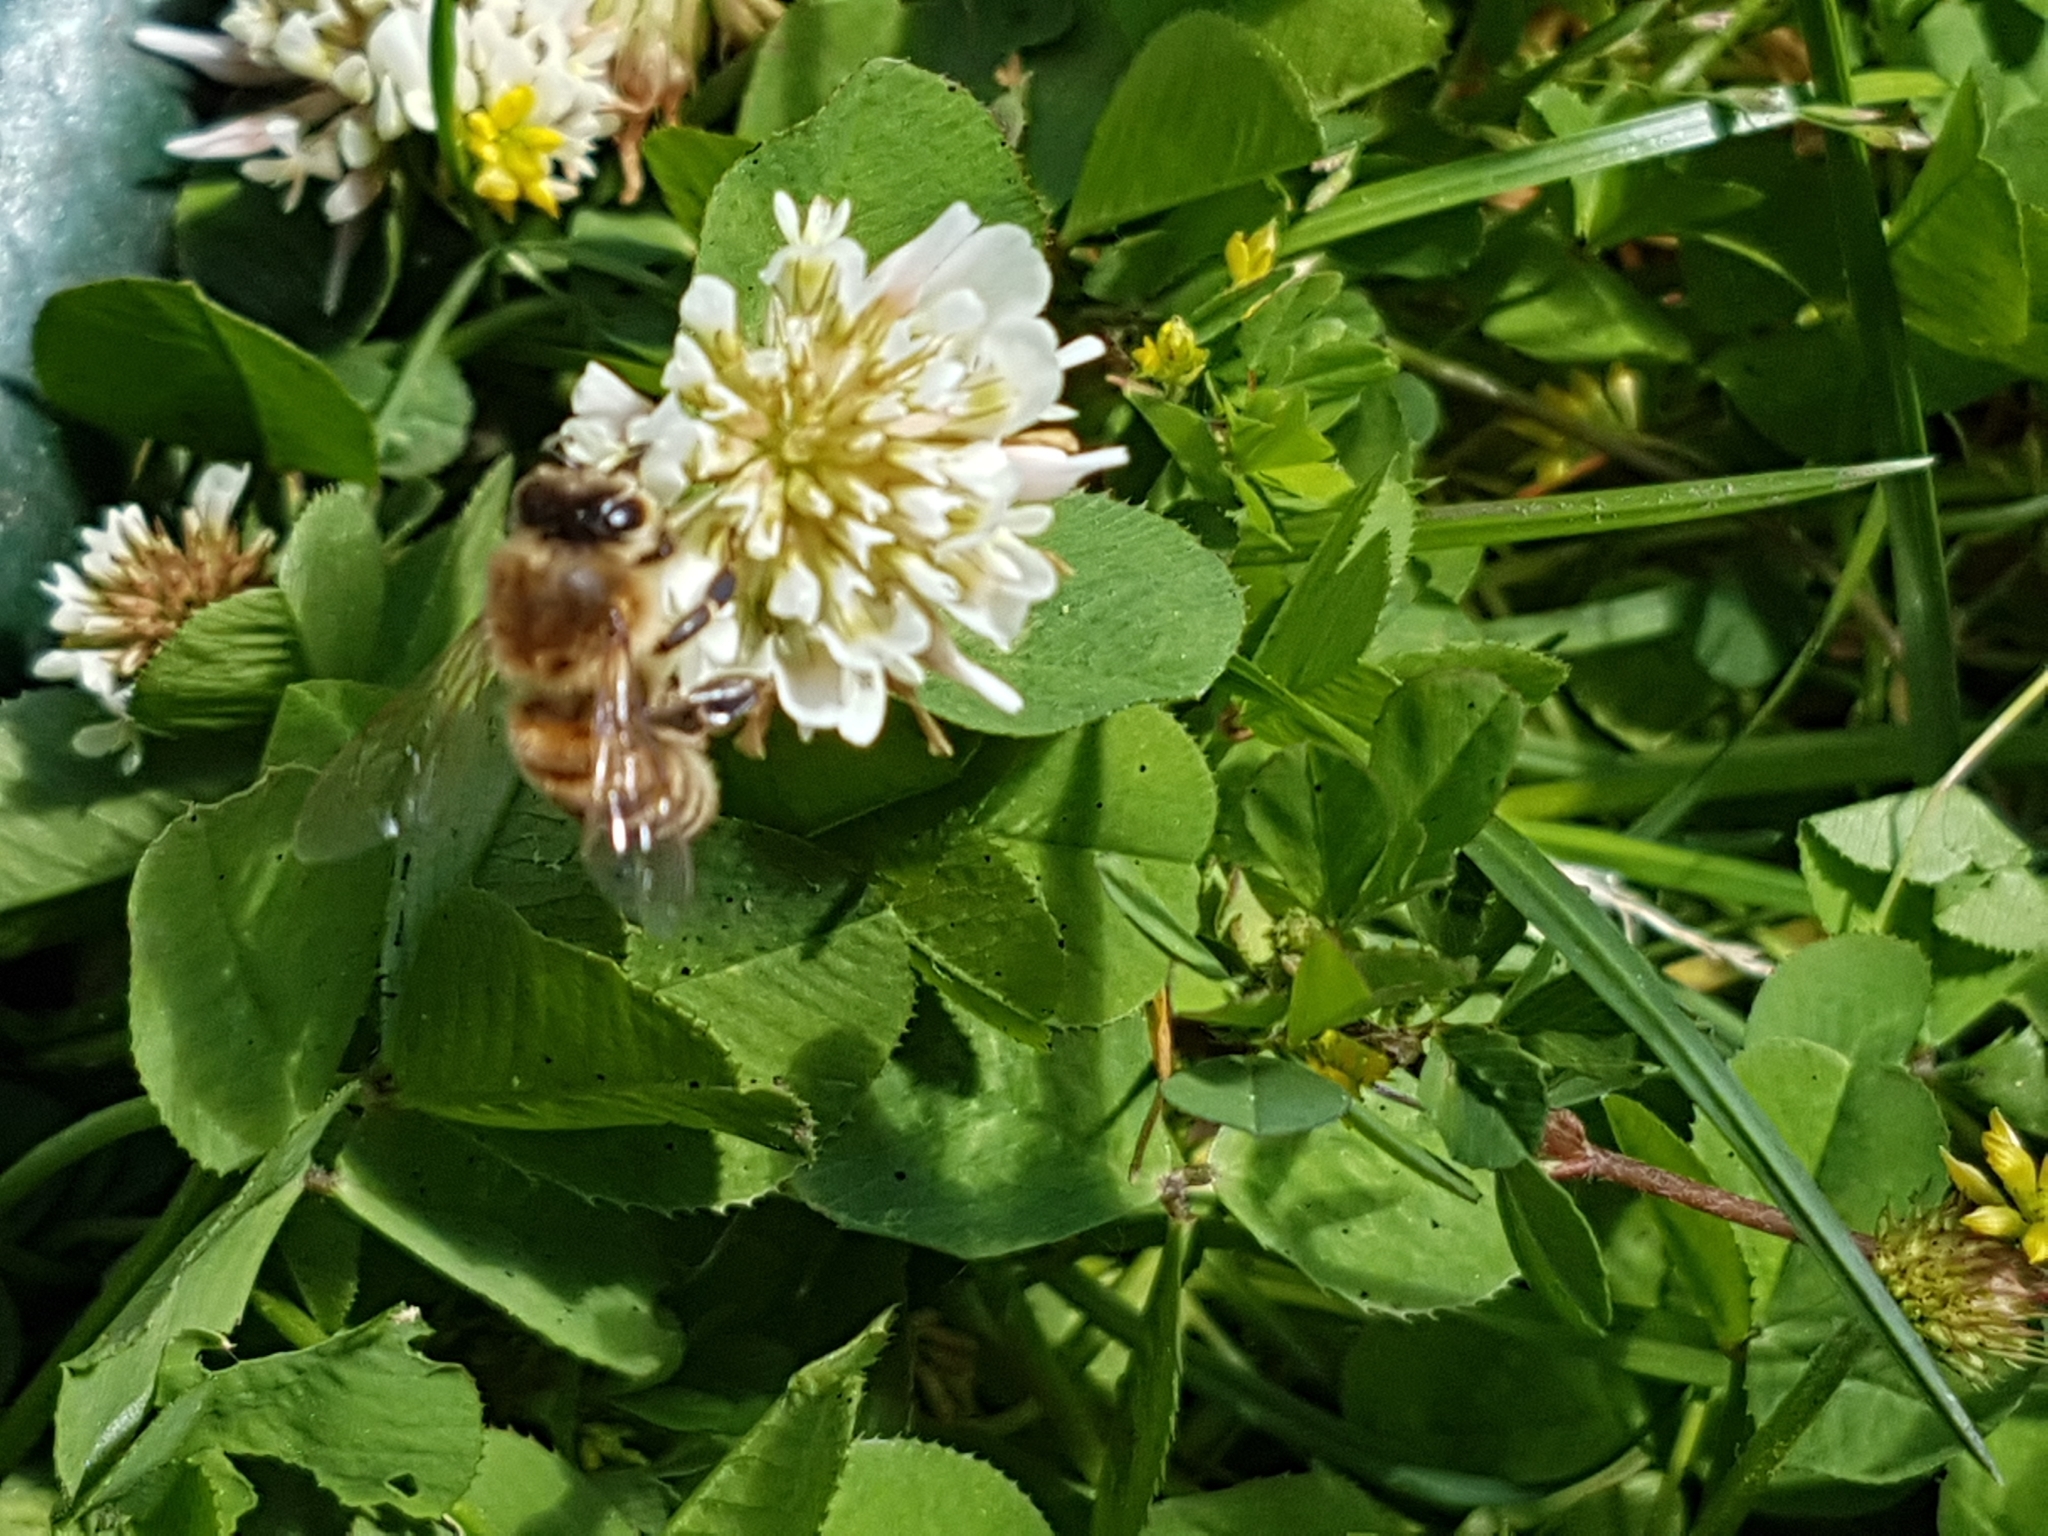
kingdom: Animalia
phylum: Arthropoda
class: Insecta
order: Hymenoptera
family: Apidae
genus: Apis
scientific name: Apis mellifera
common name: Honey bee
